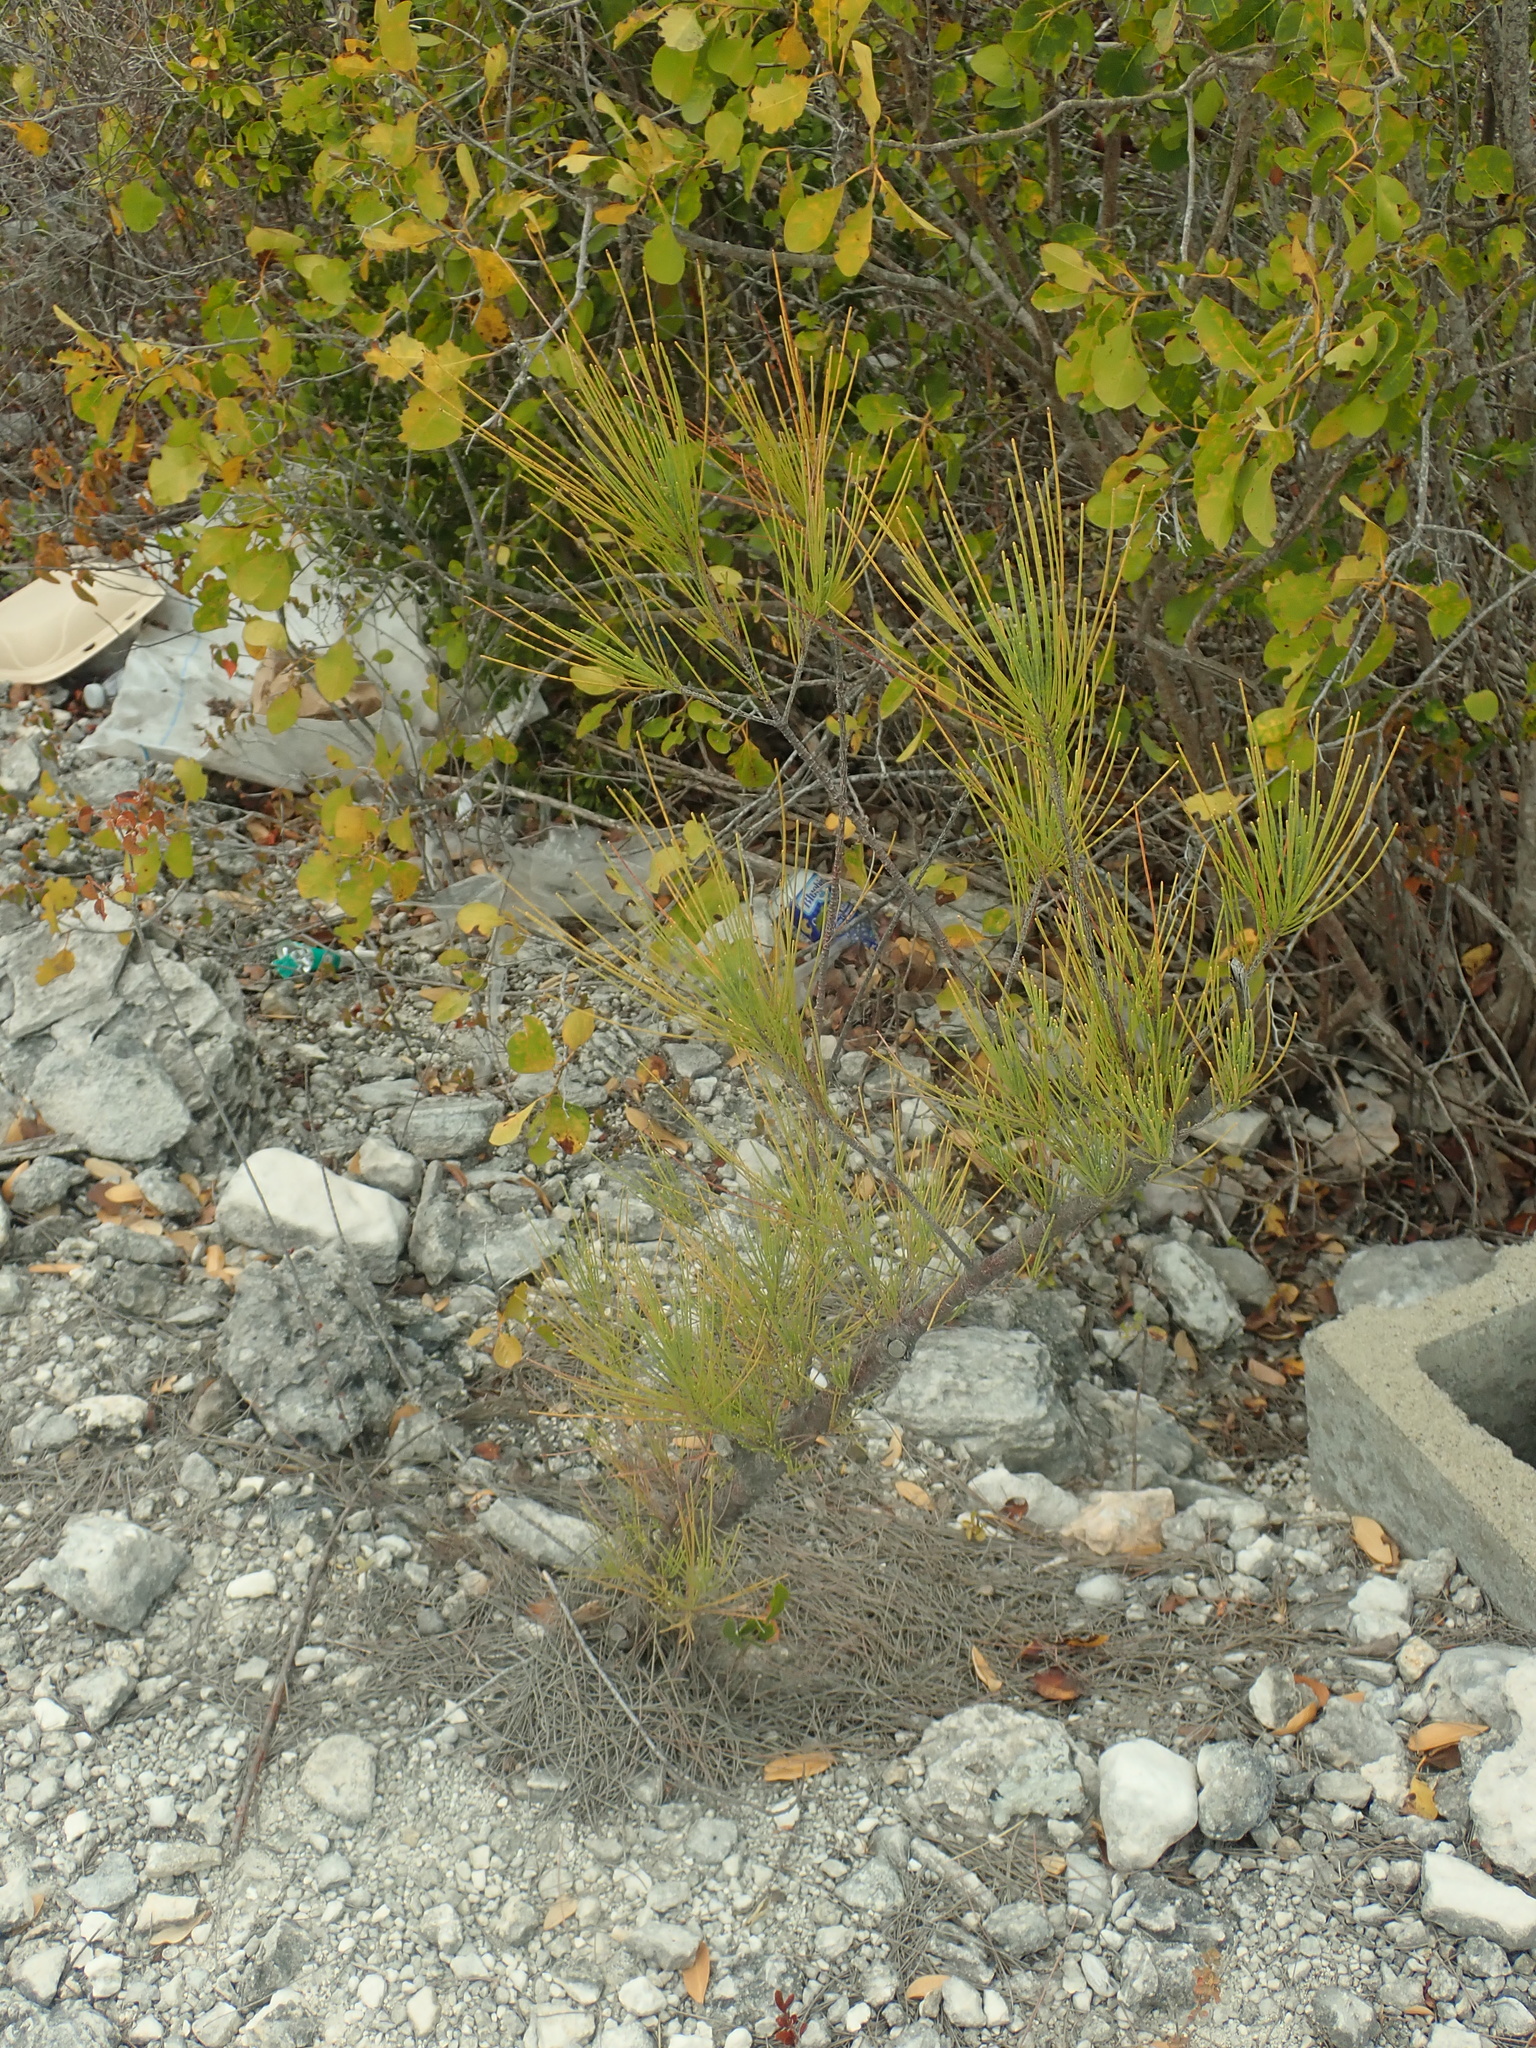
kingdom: Plantae
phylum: Tracheophyta
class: Magnoliopsida
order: Fagales
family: Casuarinaceae
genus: Casuarina
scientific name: Casuarina equisetifolia
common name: Beach sheoak
